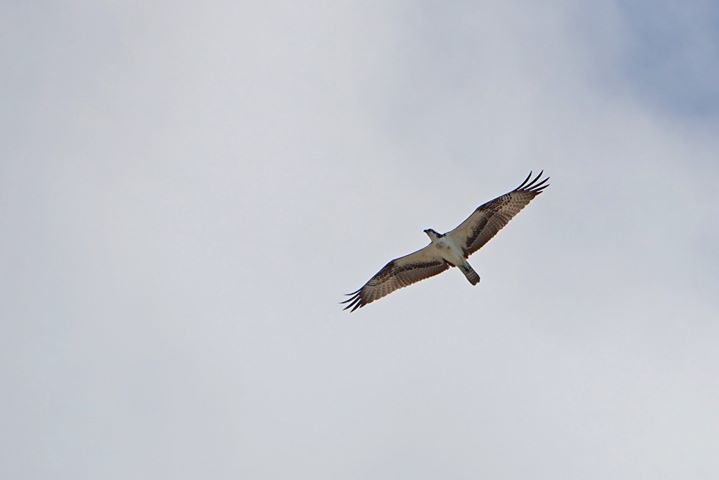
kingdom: Animalia
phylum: Chordata
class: Aves
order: Accipitriformes
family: Pandionidae
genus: Pandion
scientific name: Pandion haliaetus
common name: Osprey
